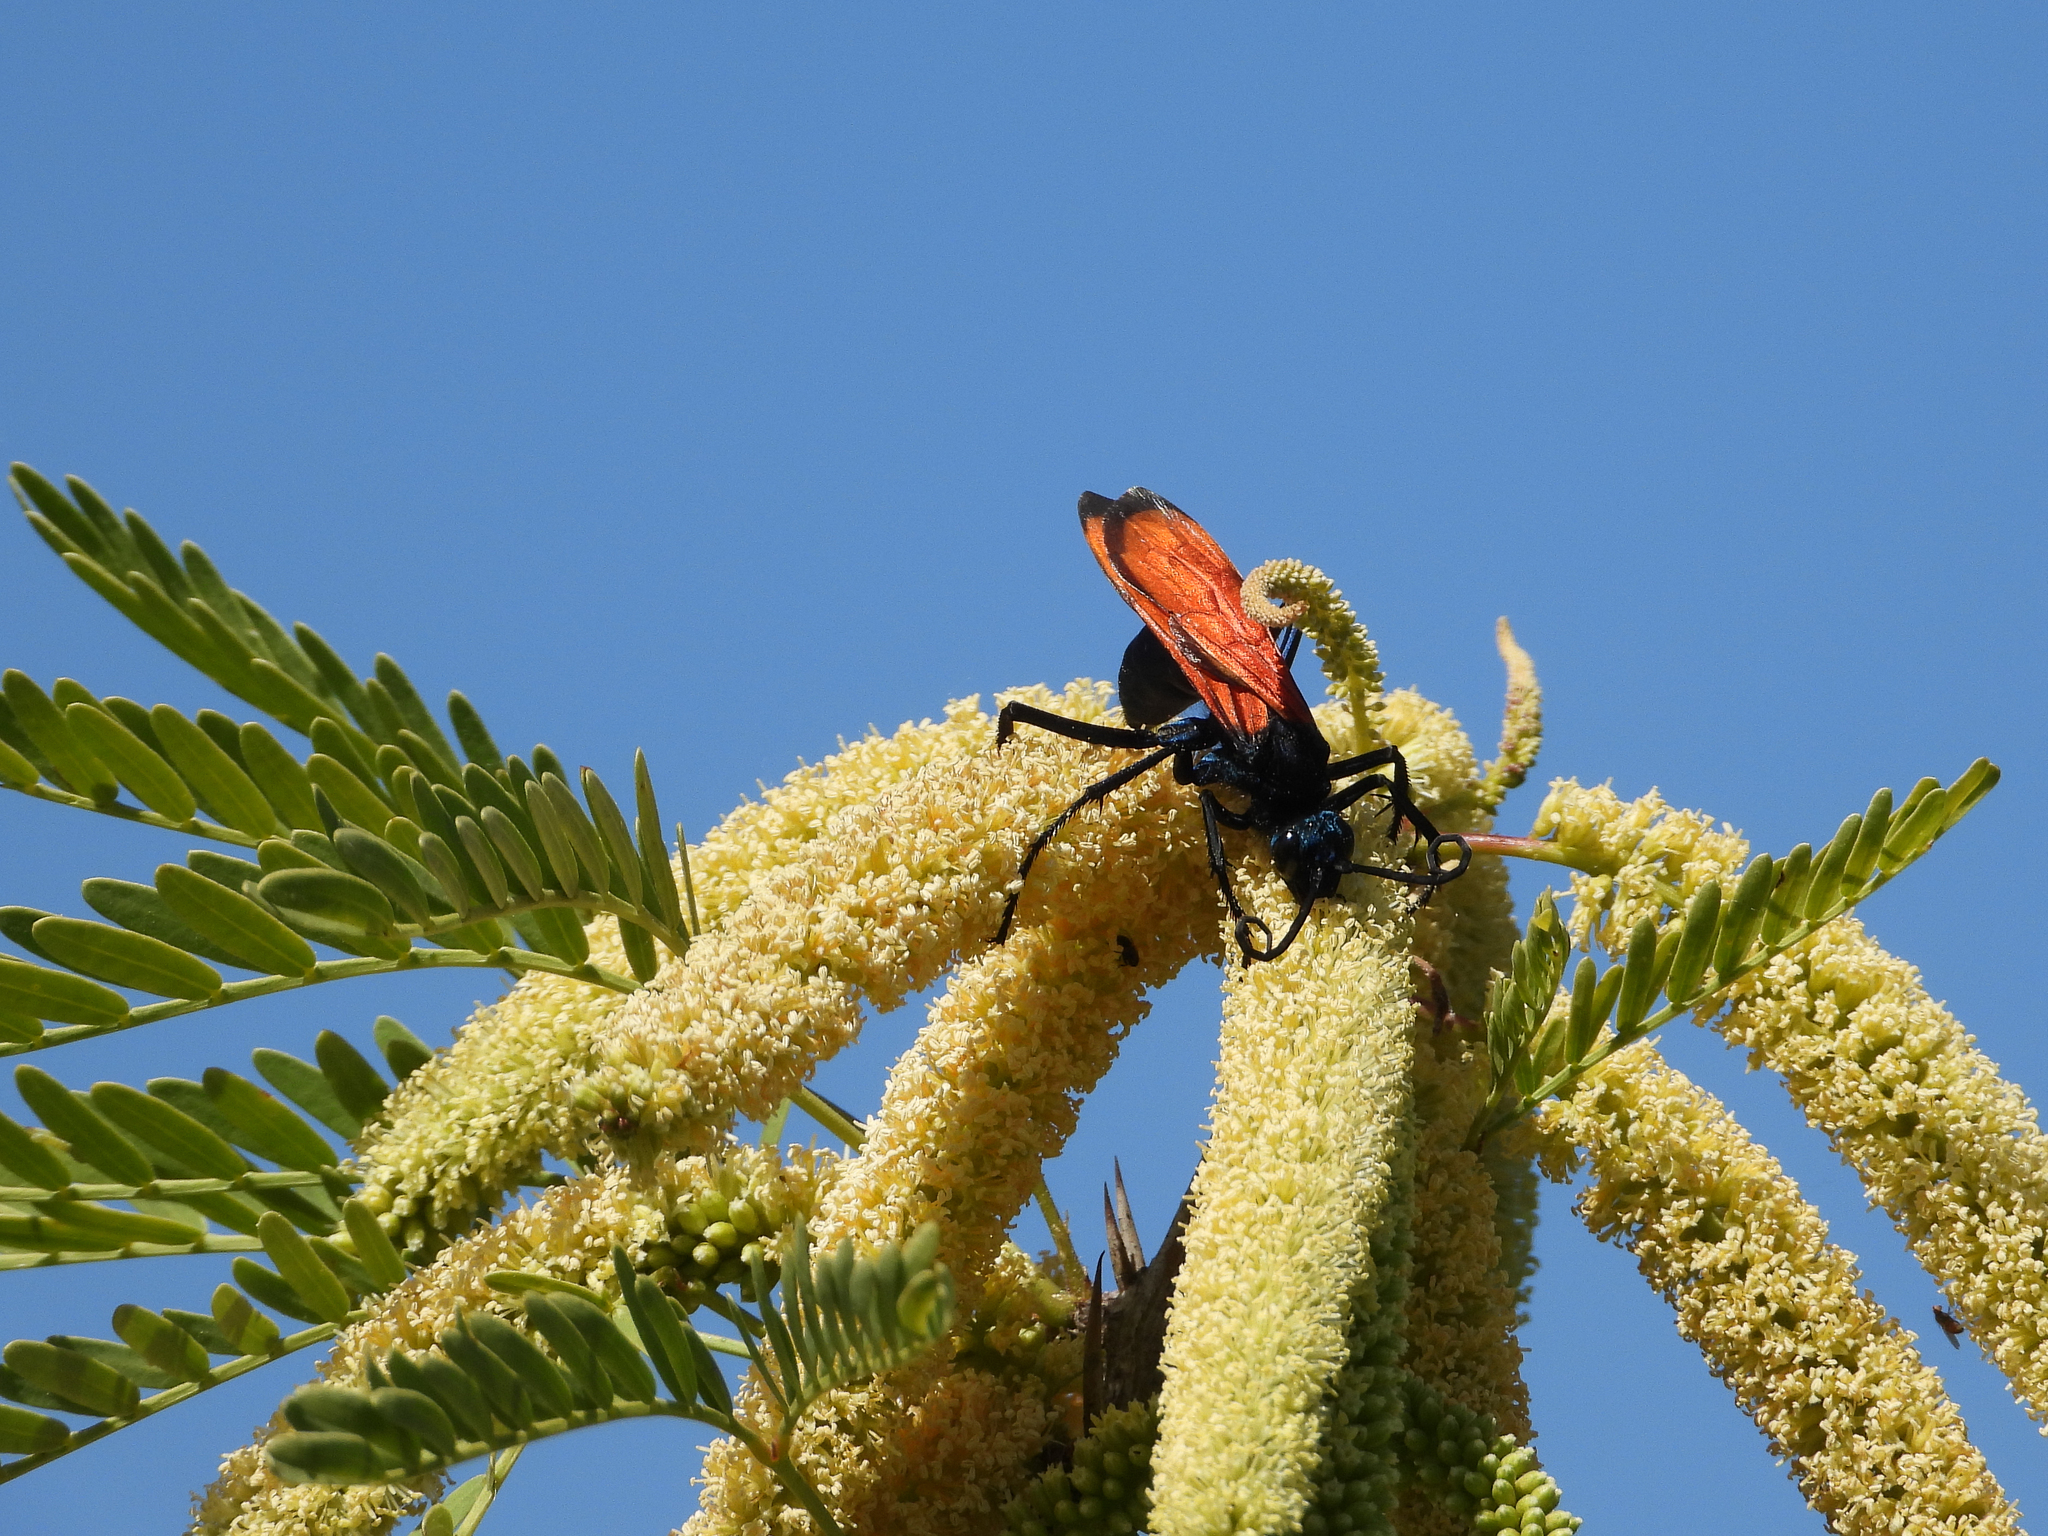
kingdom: Animalia
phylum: Arthropoda
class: Insecta
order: Hymenoptera
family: Pompilidae
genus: Pepsis
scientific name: Pepsis thisbe
